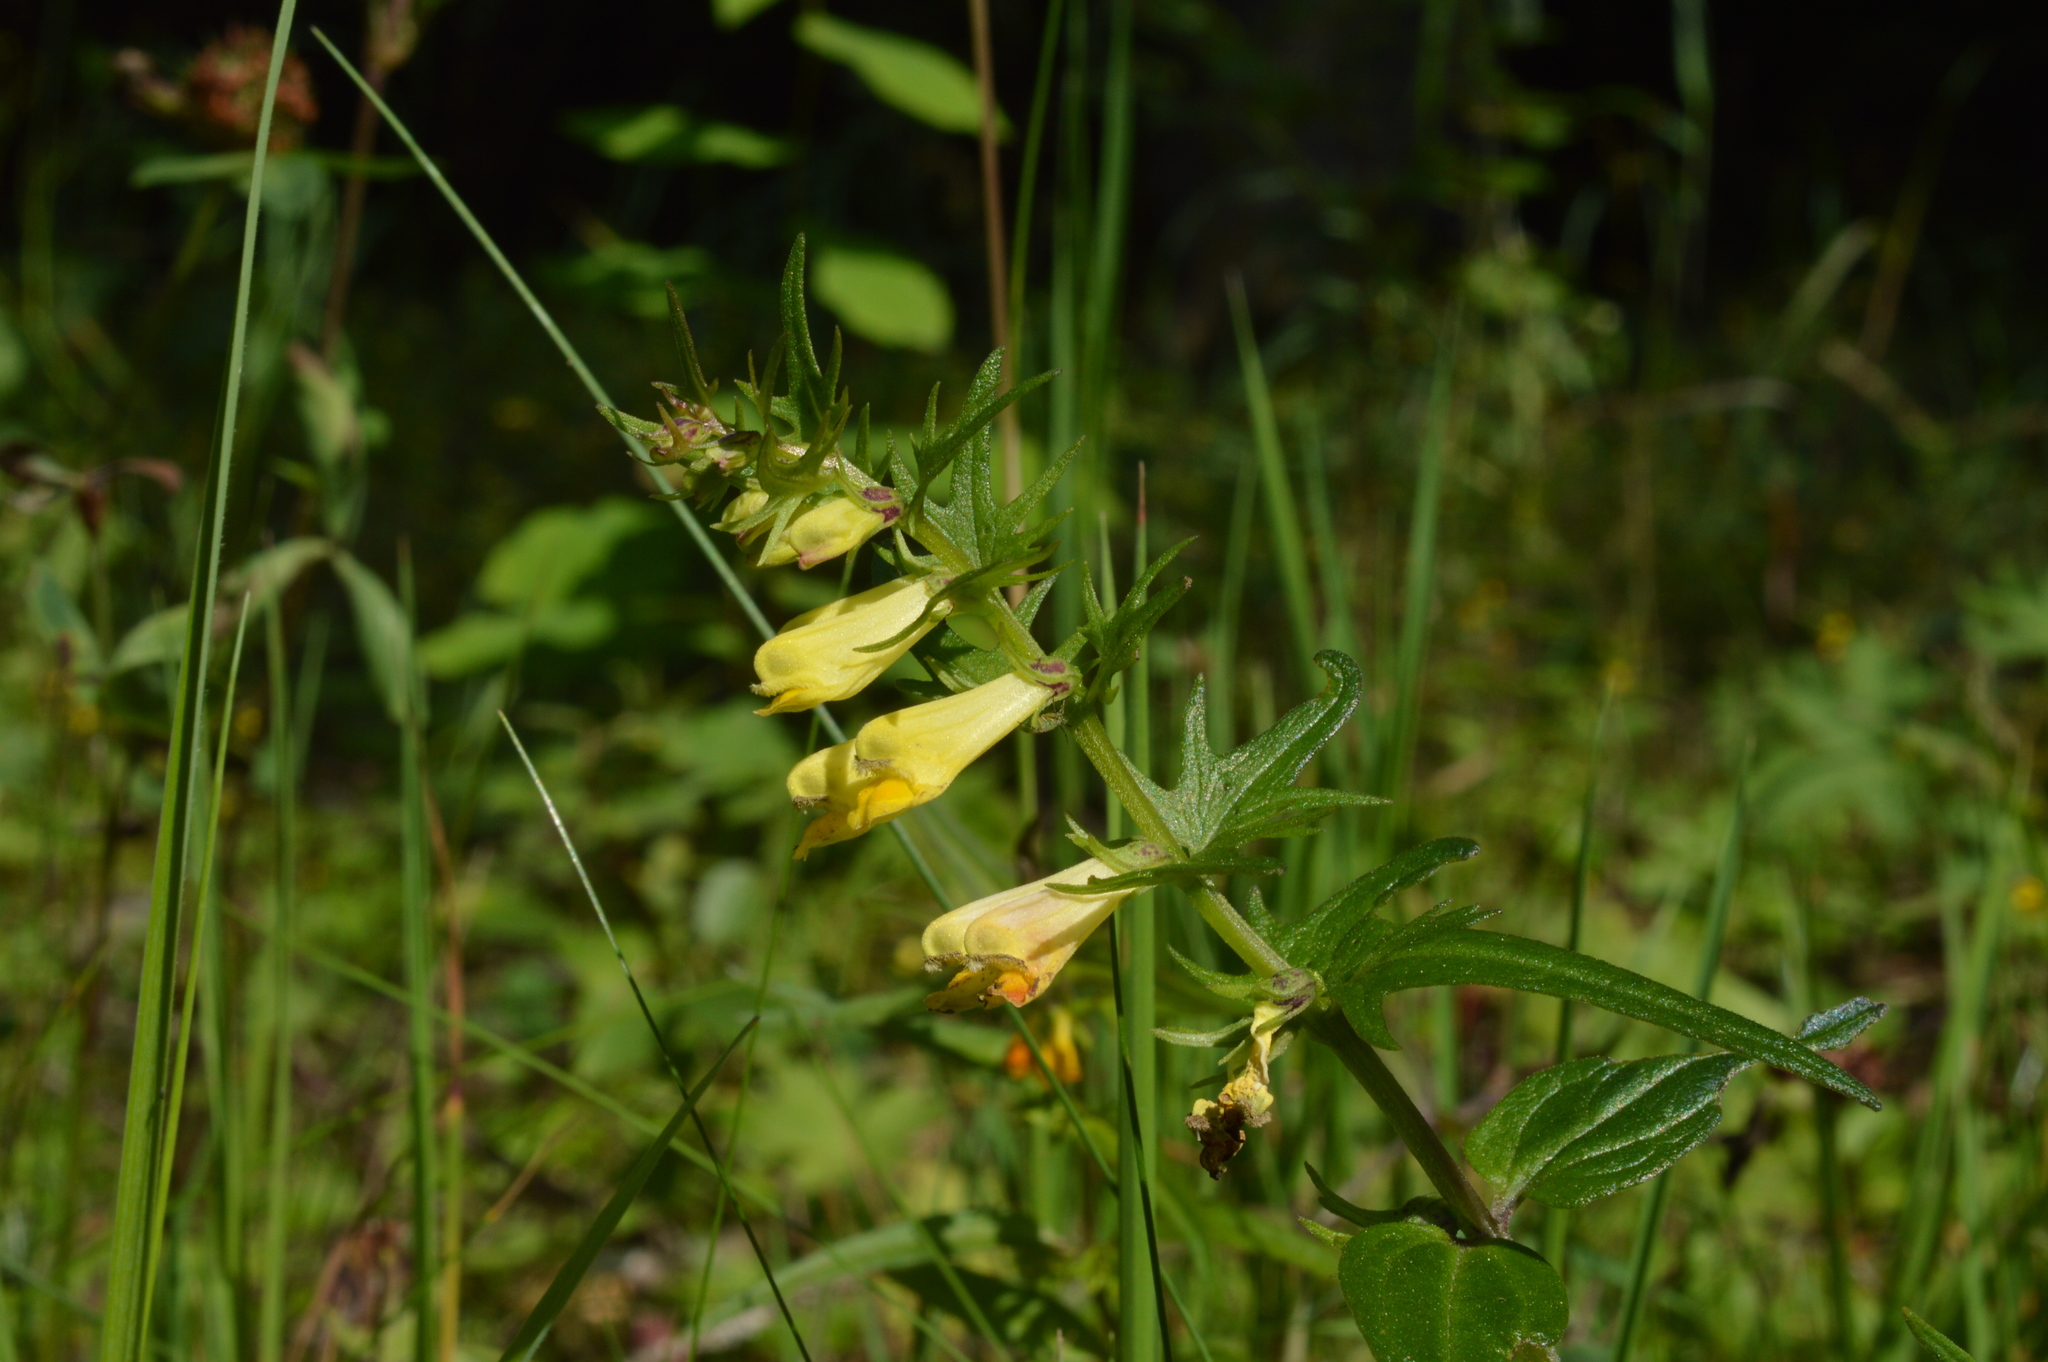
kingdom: Plantae
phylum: Tracheophyta
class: Magnoliopsida
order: Lamiales
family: Orobanchaceae
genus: Melampyrum
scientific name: Melampyrum pratense
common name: Common cow-wheat
